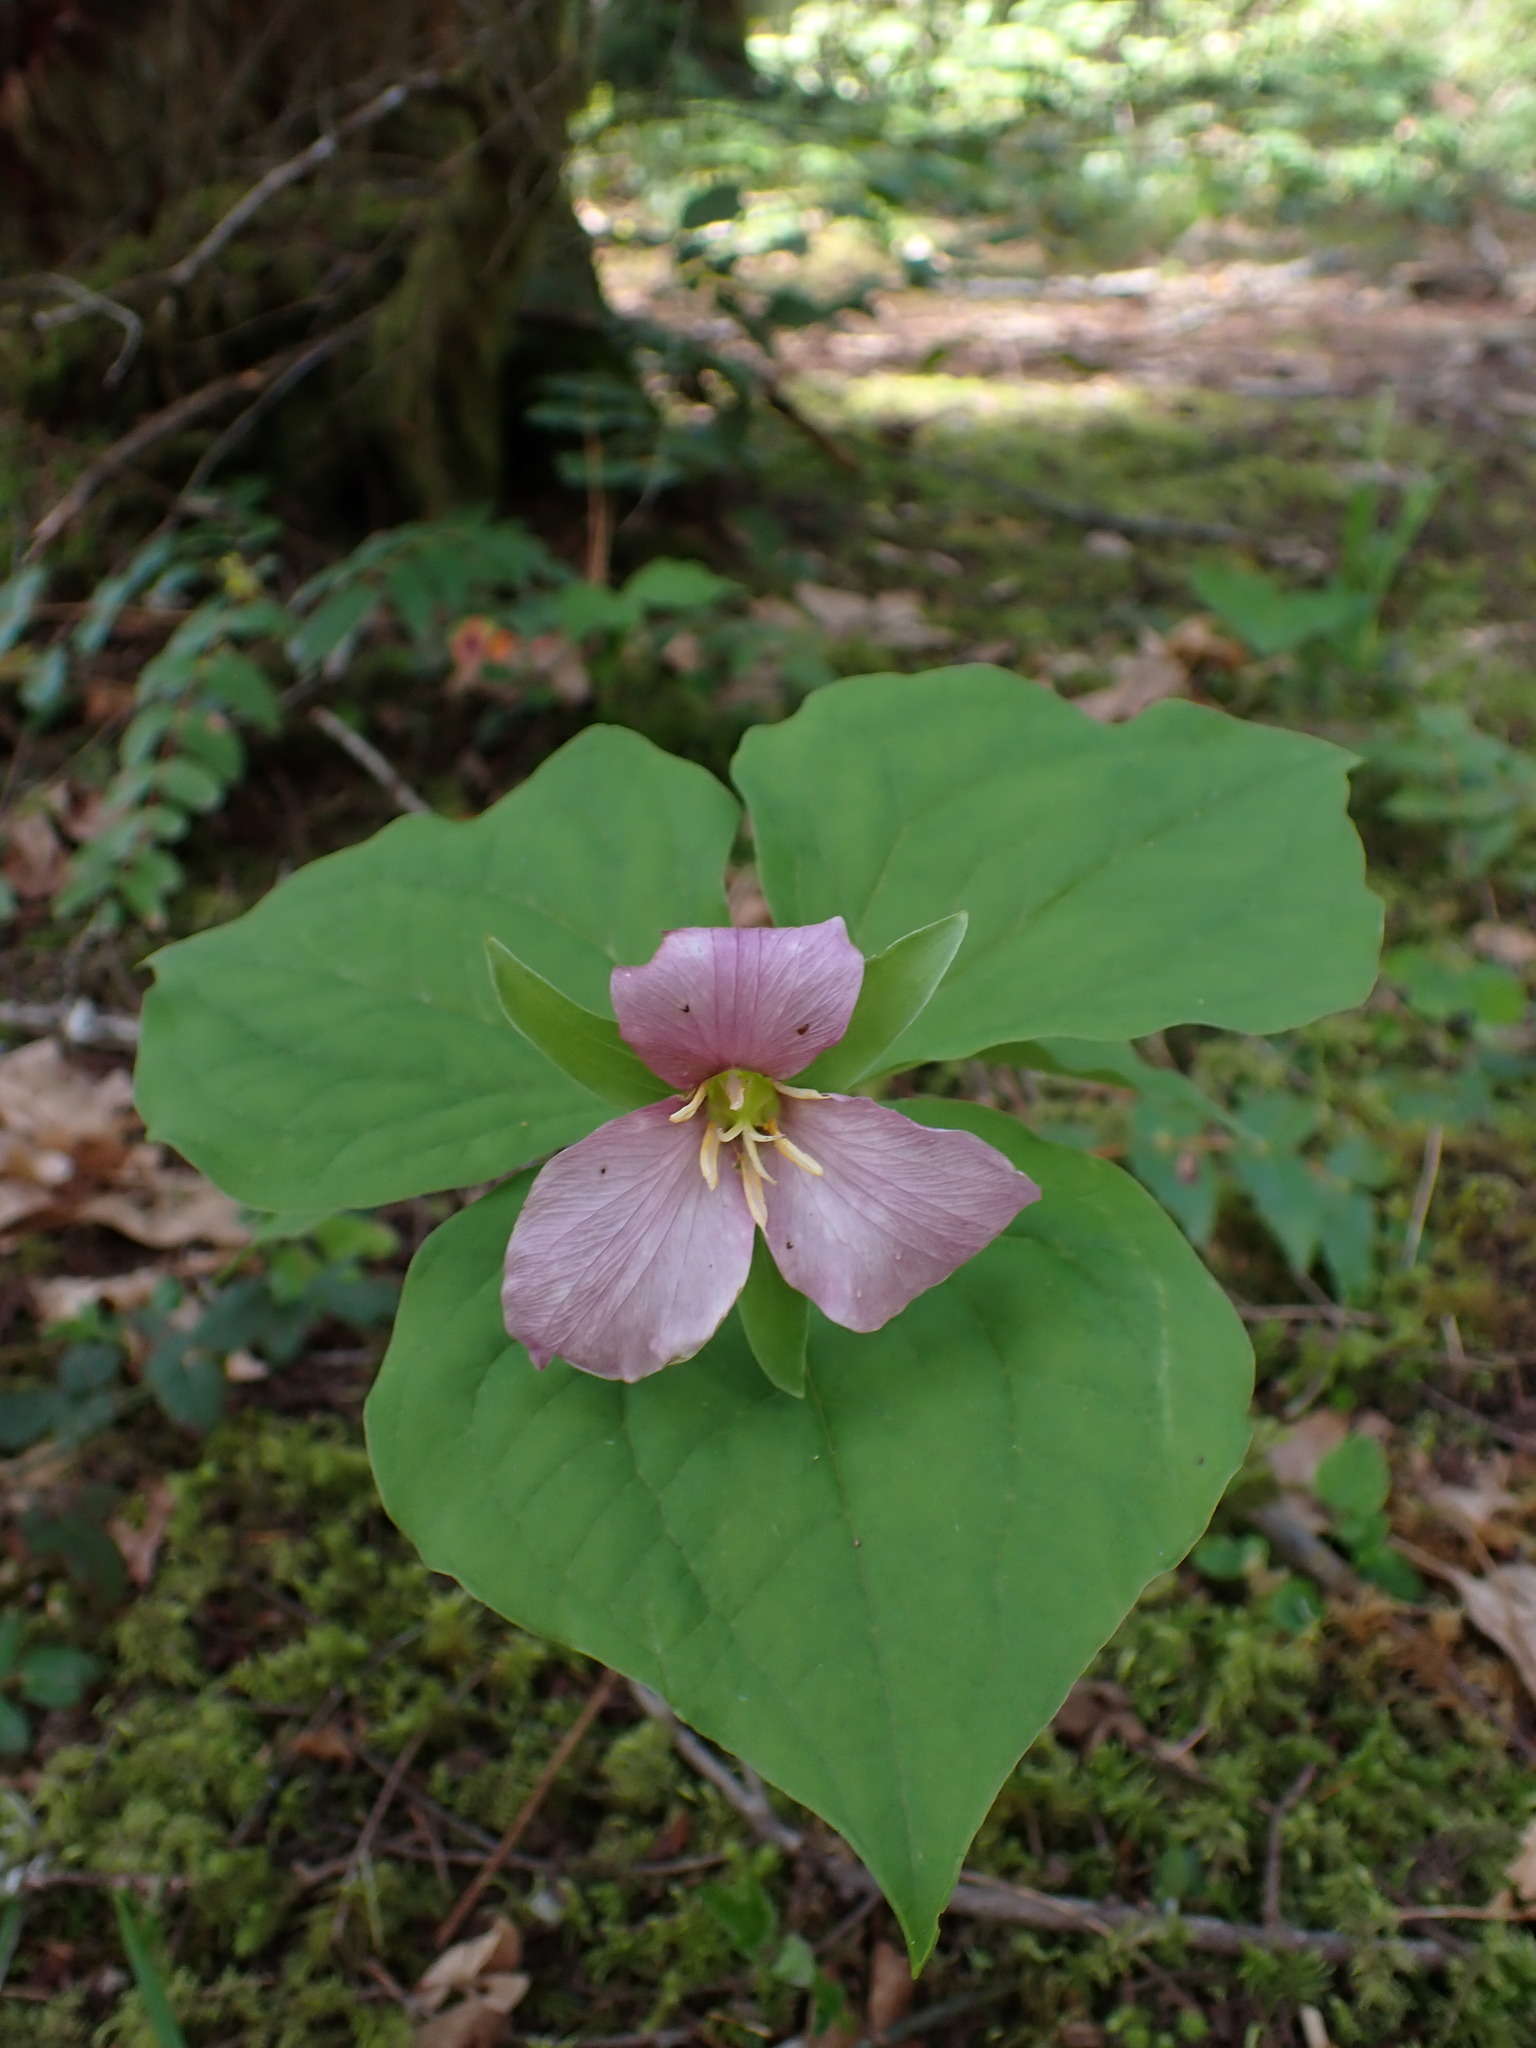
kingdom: Plantae
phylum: Tracheophyta
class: Liliopsida
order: Liliales
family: Melanthiaceae
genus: Trillium
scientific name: Trillium ovatum
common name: Pacific trillium
